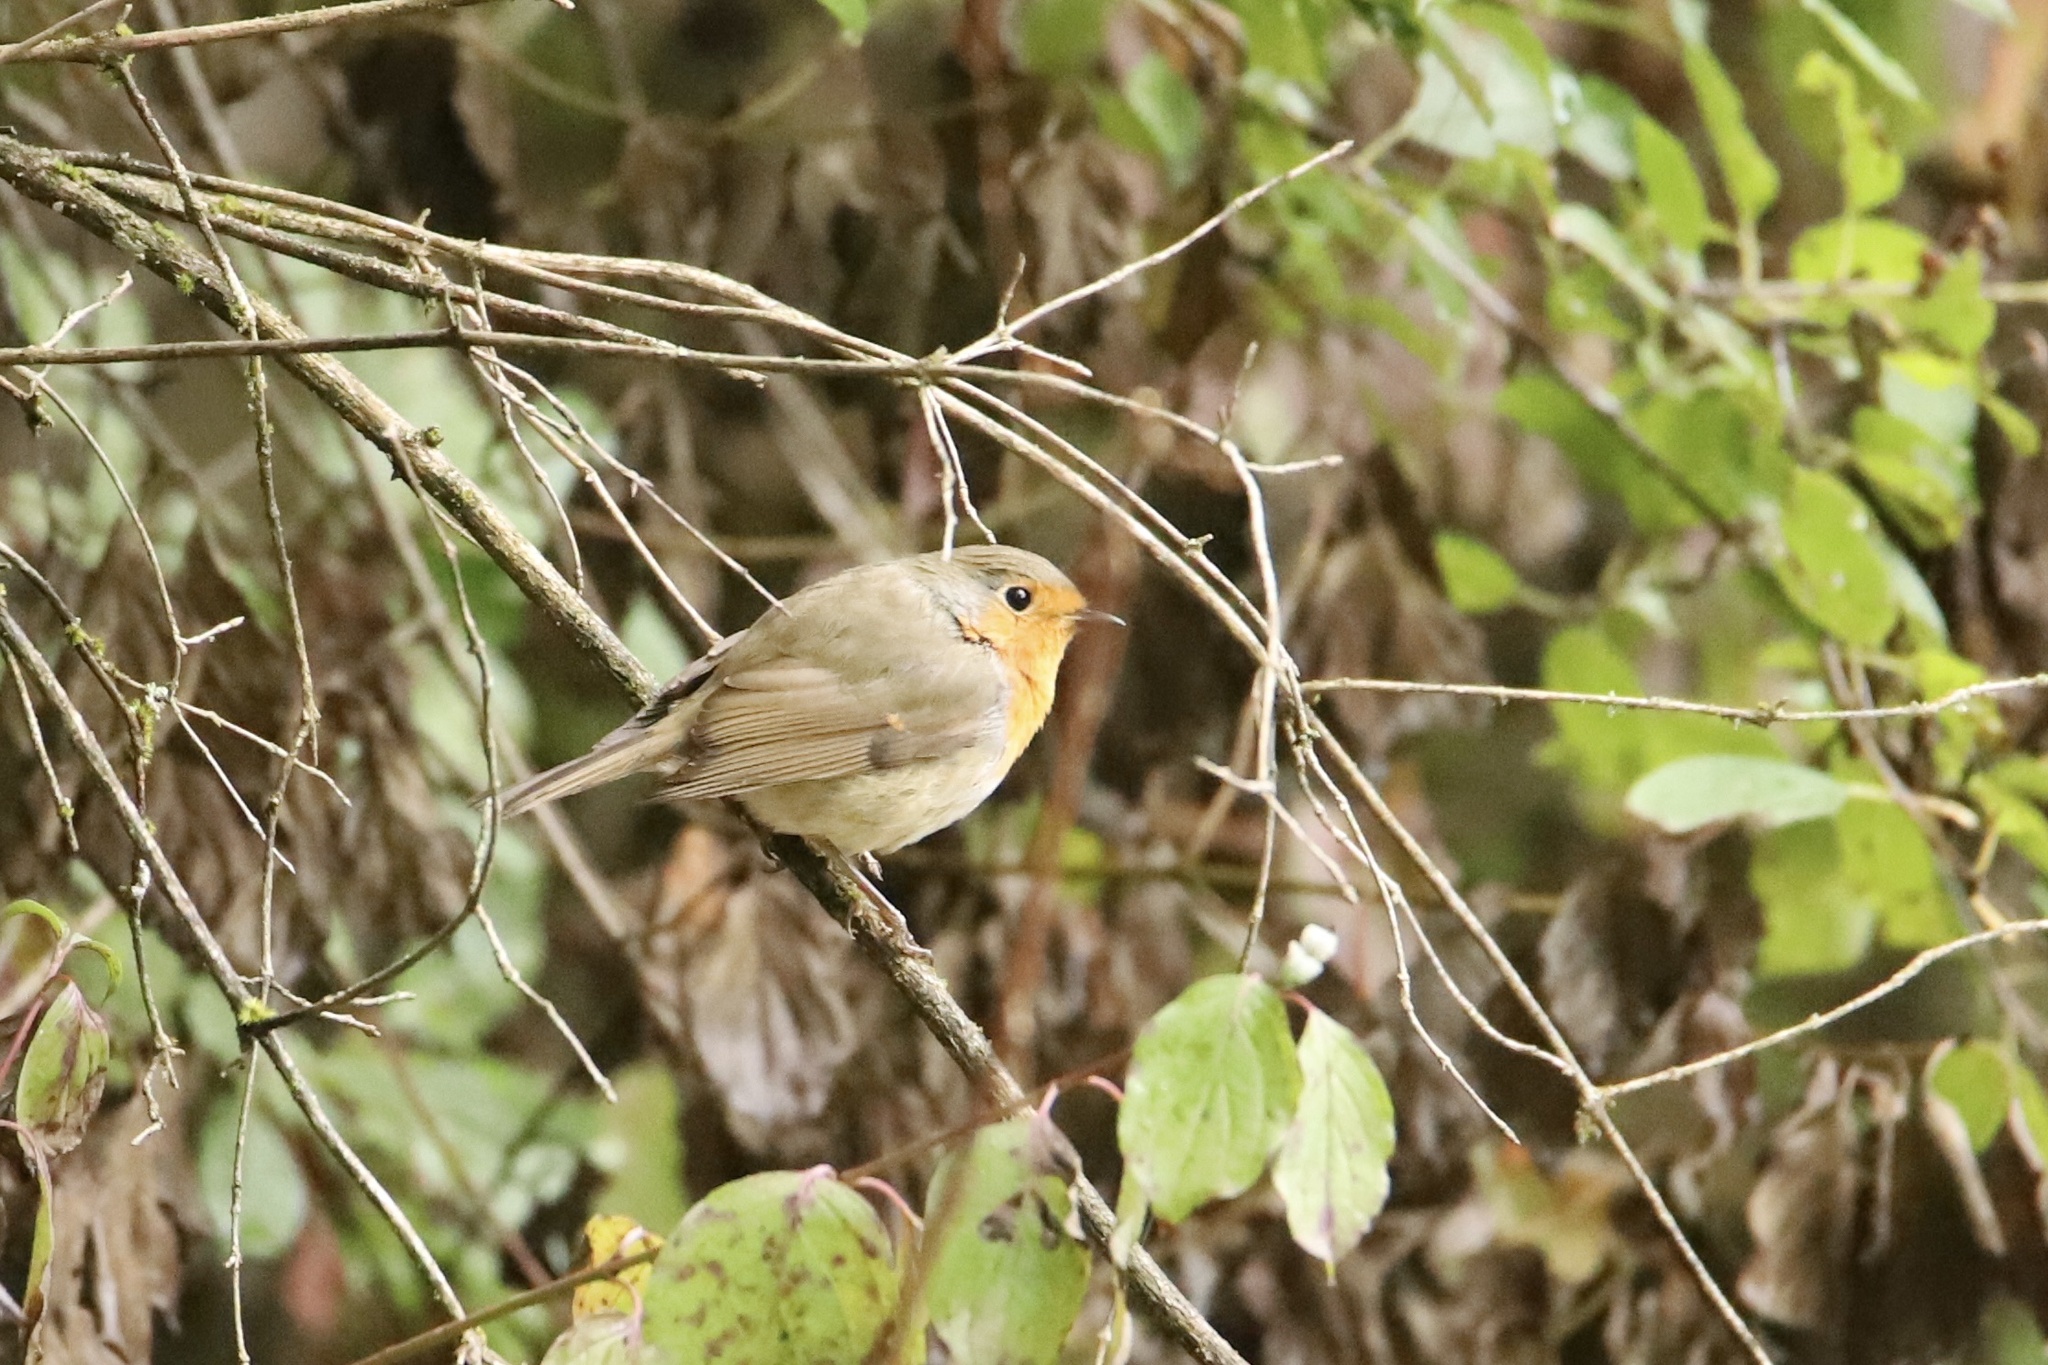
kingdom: Animalia
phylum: Chordata
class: Aves
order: Passeriformes
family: Muscicapidae
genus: Erithacus
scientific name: Erithacus rubecula
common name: European robin
